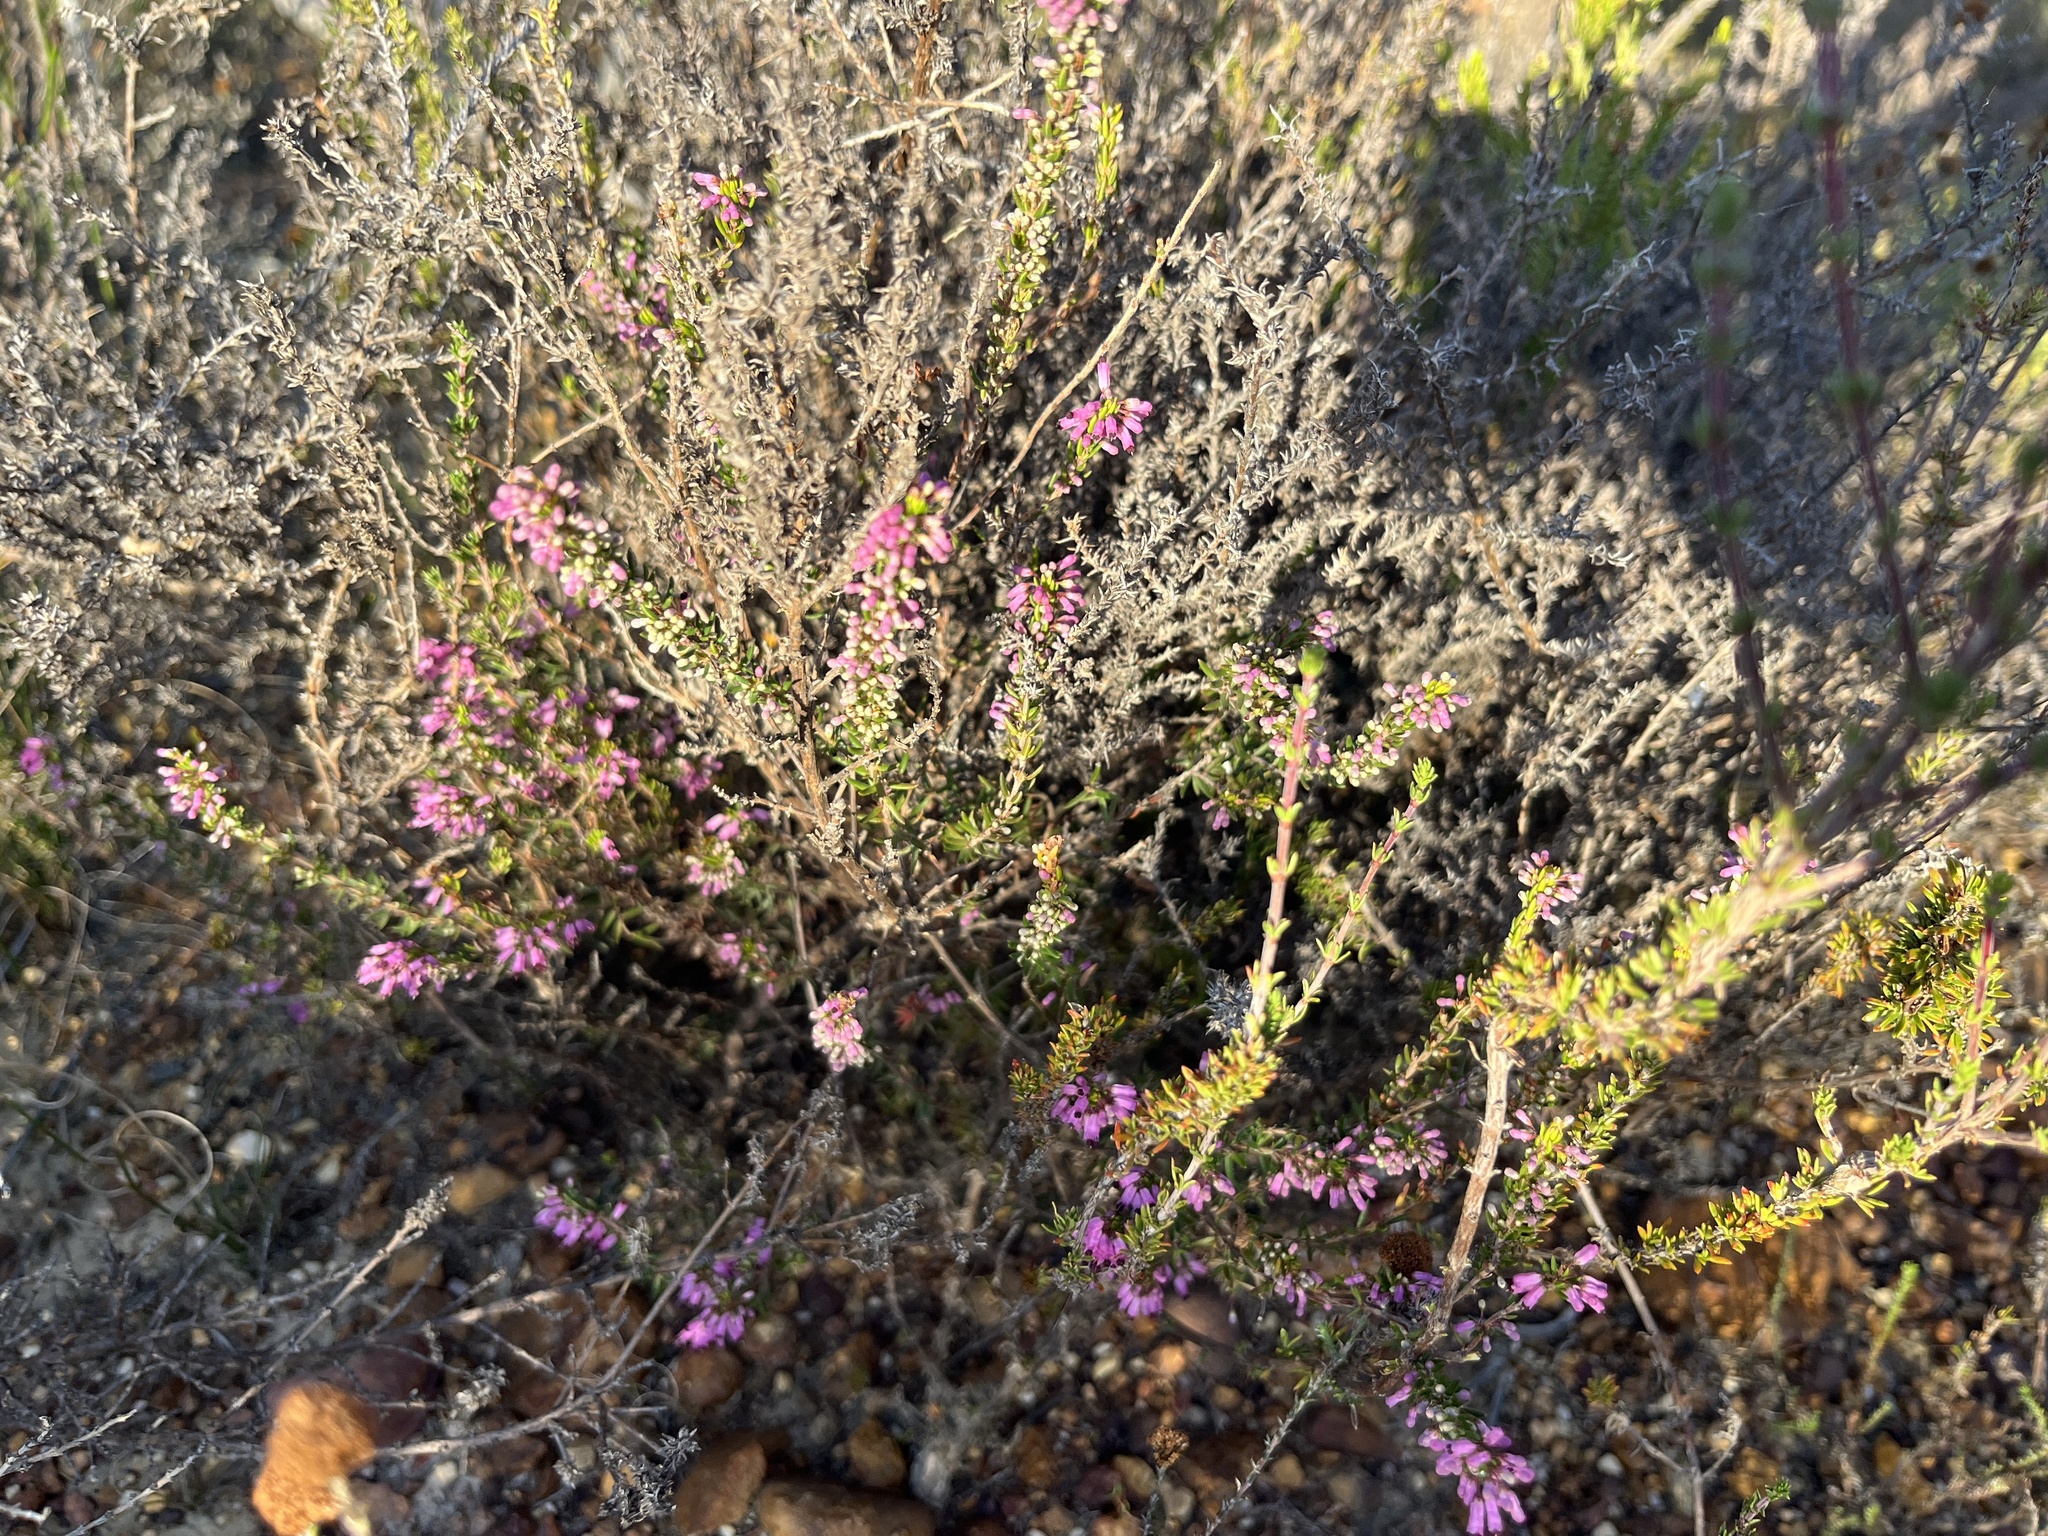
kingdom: Plantae
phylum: Tracheophyta
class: Magnoliopsida
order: Ericales
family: Ericaceae
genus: Erica
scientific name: Erica nudiflora
